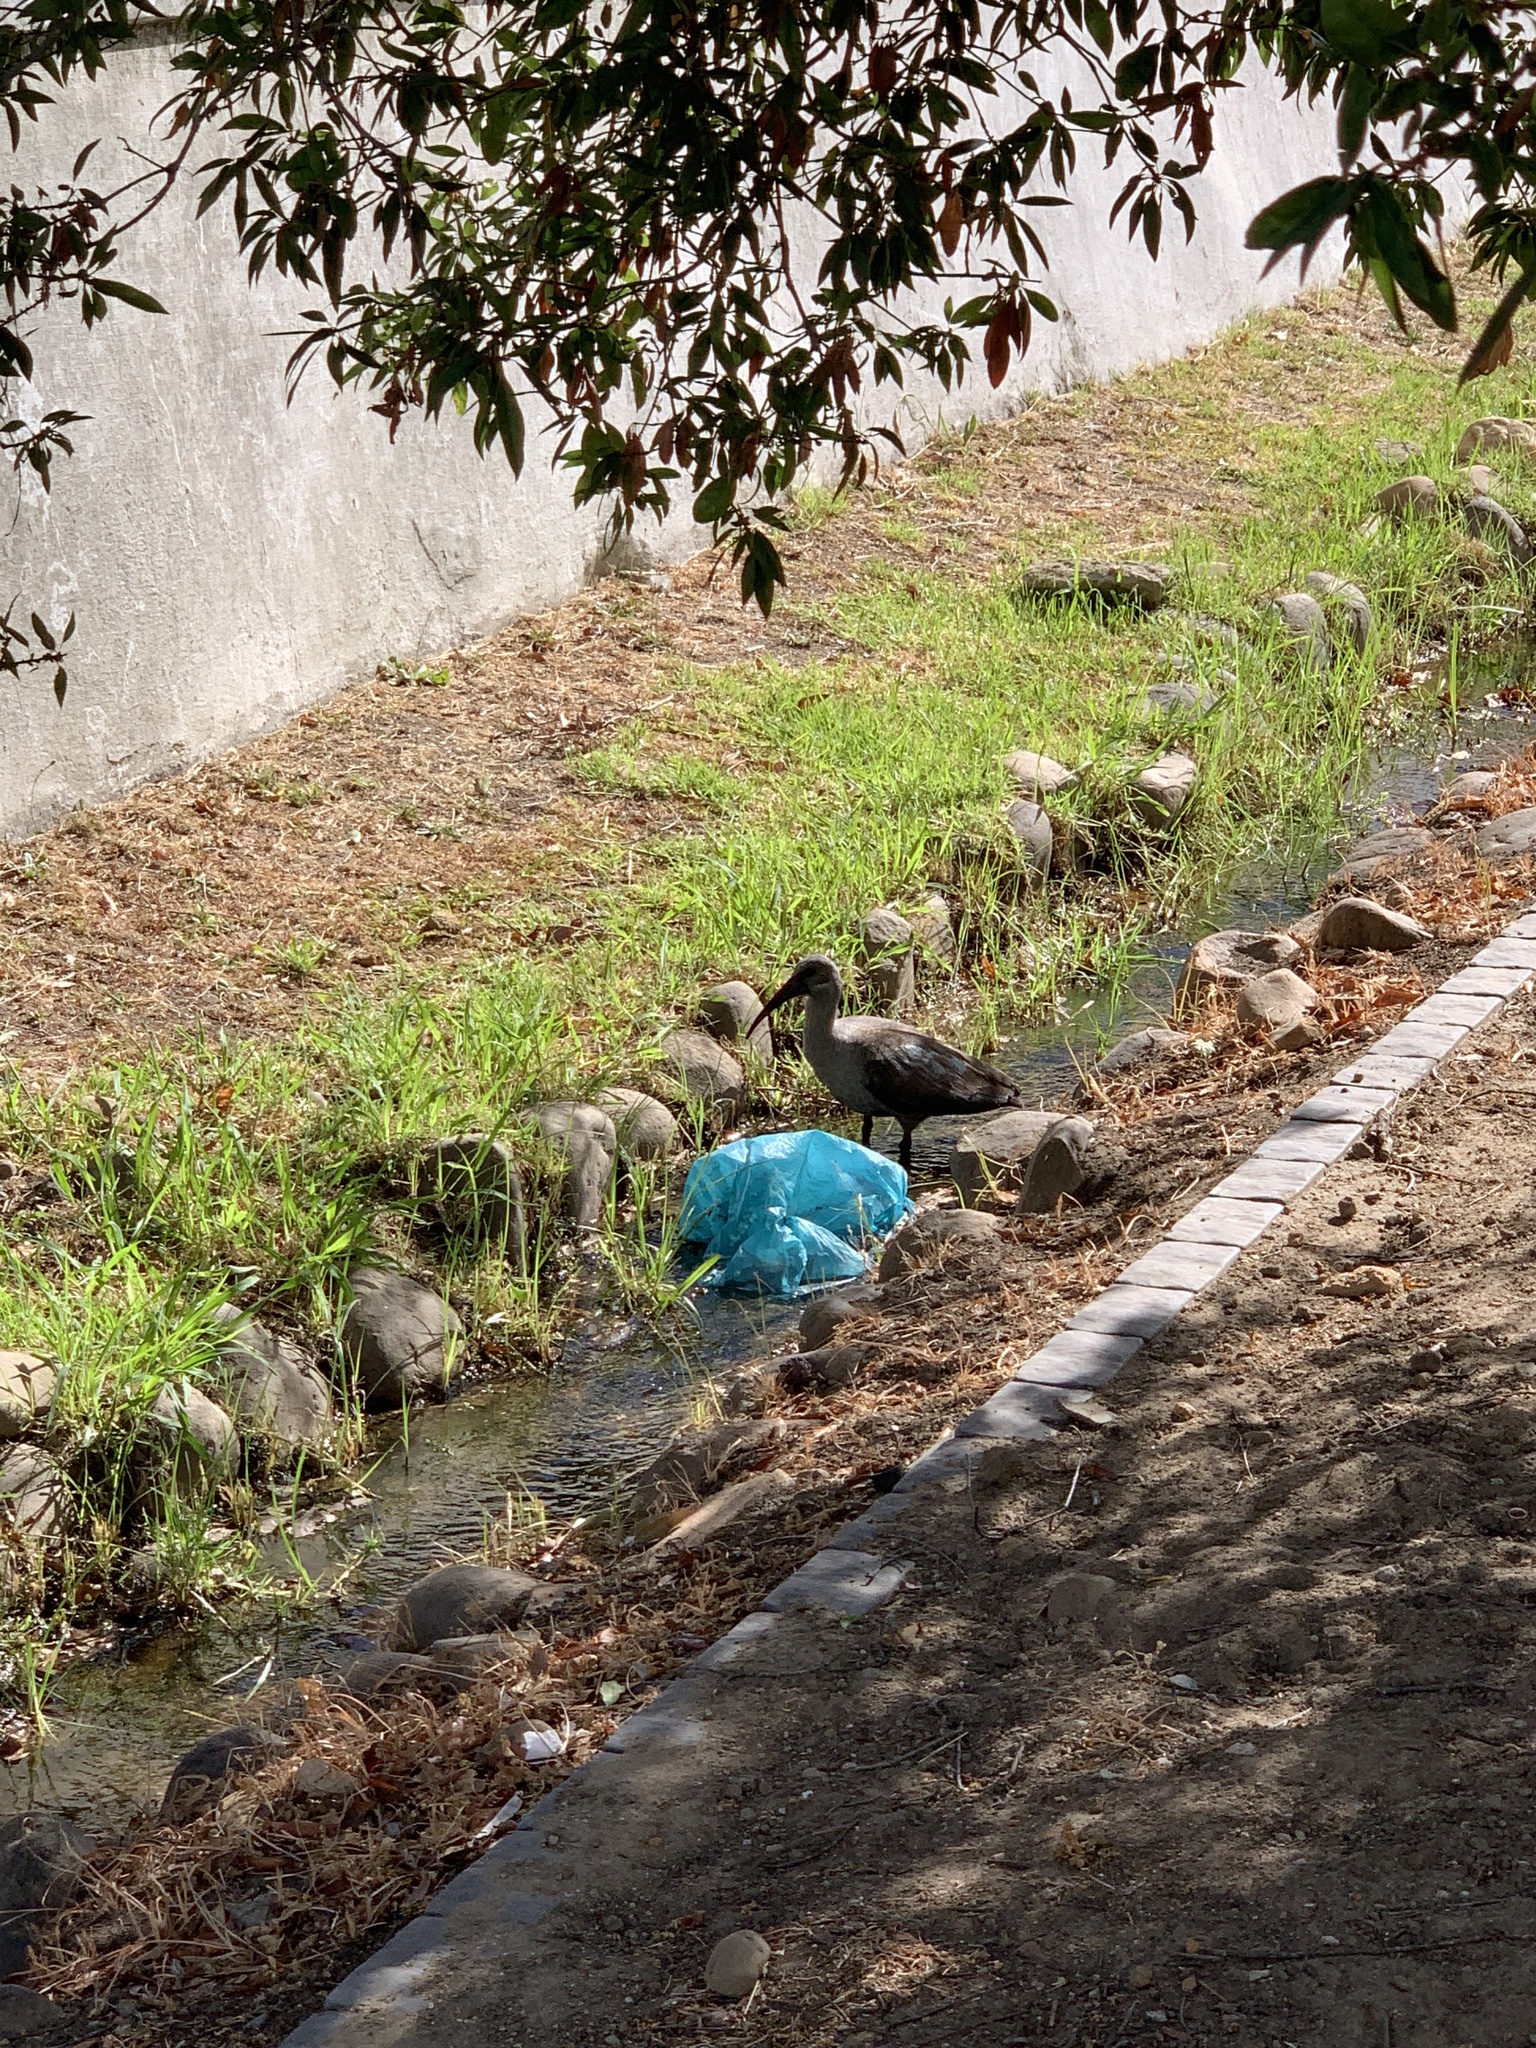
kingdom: Animalia
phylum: Chordata
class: Aves
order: Pelecaniformes
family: Threskiornithidae
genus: Bostrychia
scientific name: Bostrychia hagedash
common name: Hadada ibis
